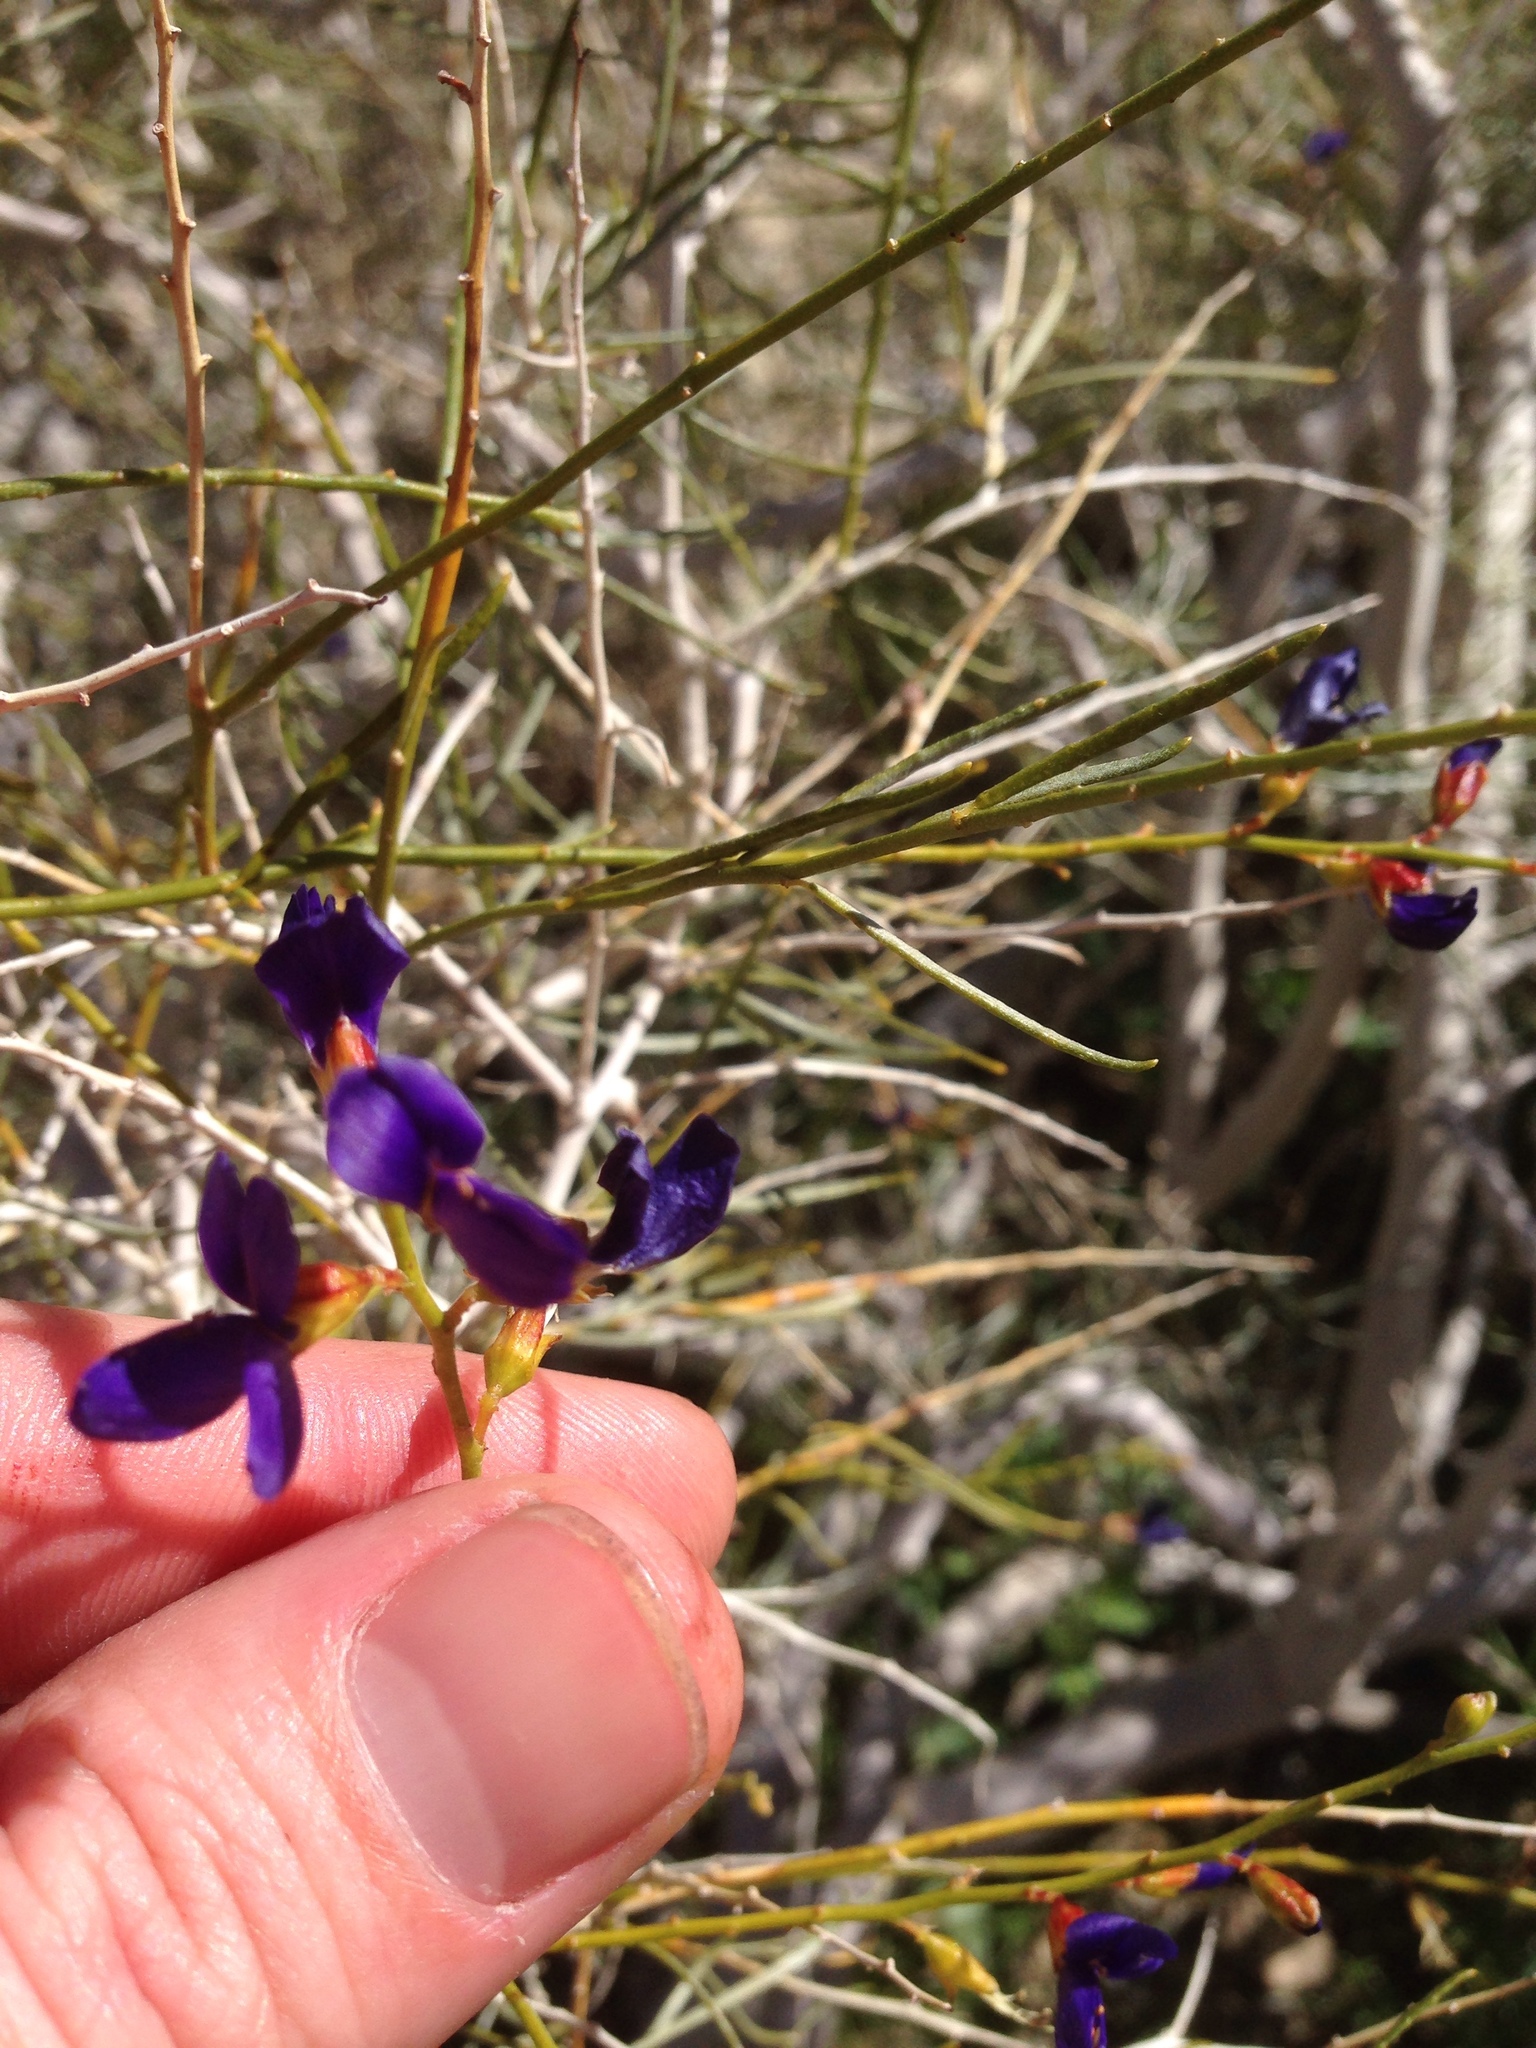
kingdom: Plantae
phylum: Tracheophyta
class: Magnoliopsida
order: Fabales
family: Fabaceae
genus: Psorothamnus
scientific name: Psorothamnus schottii
